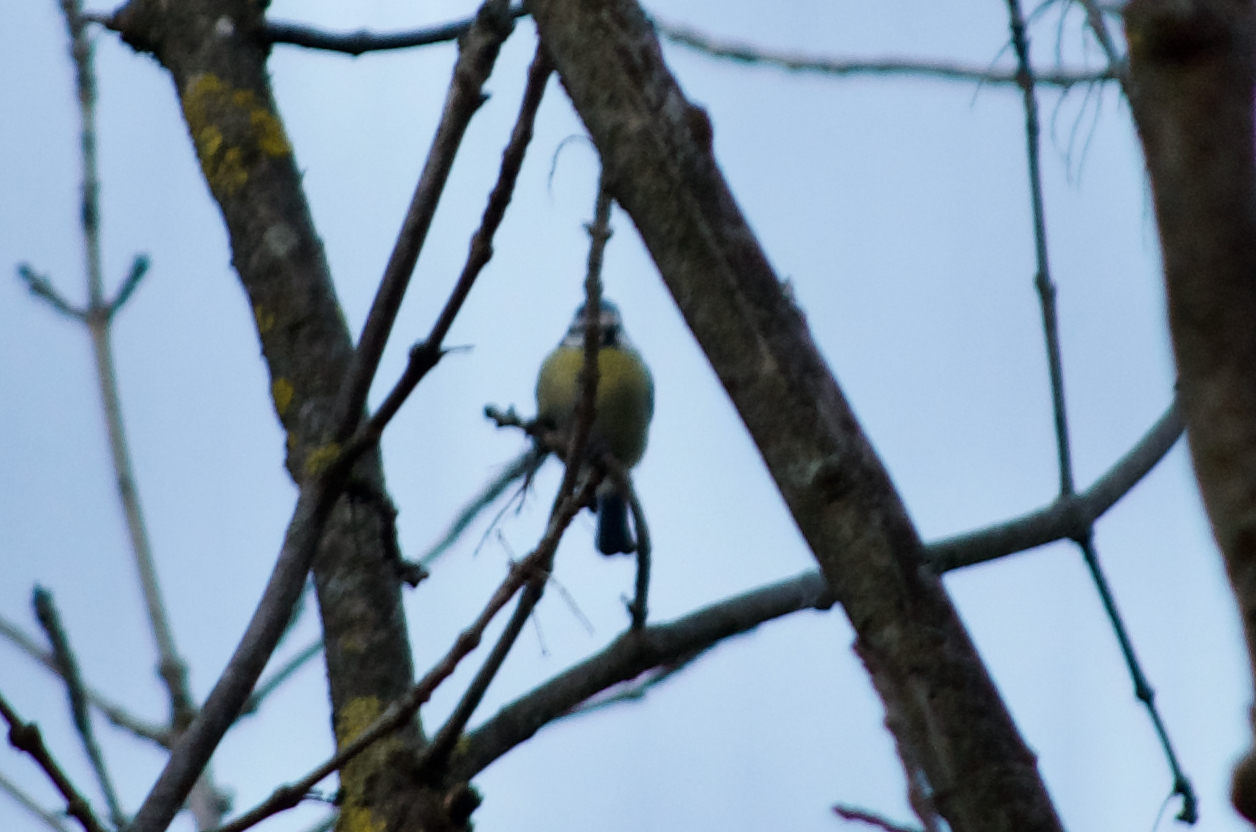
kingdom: Animalia
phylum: Chordata
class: Aves
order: Passeriformes
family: Paridae
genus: Cyanistes
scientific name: Cyanistes caeruleus
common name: Eurasian blue tit
